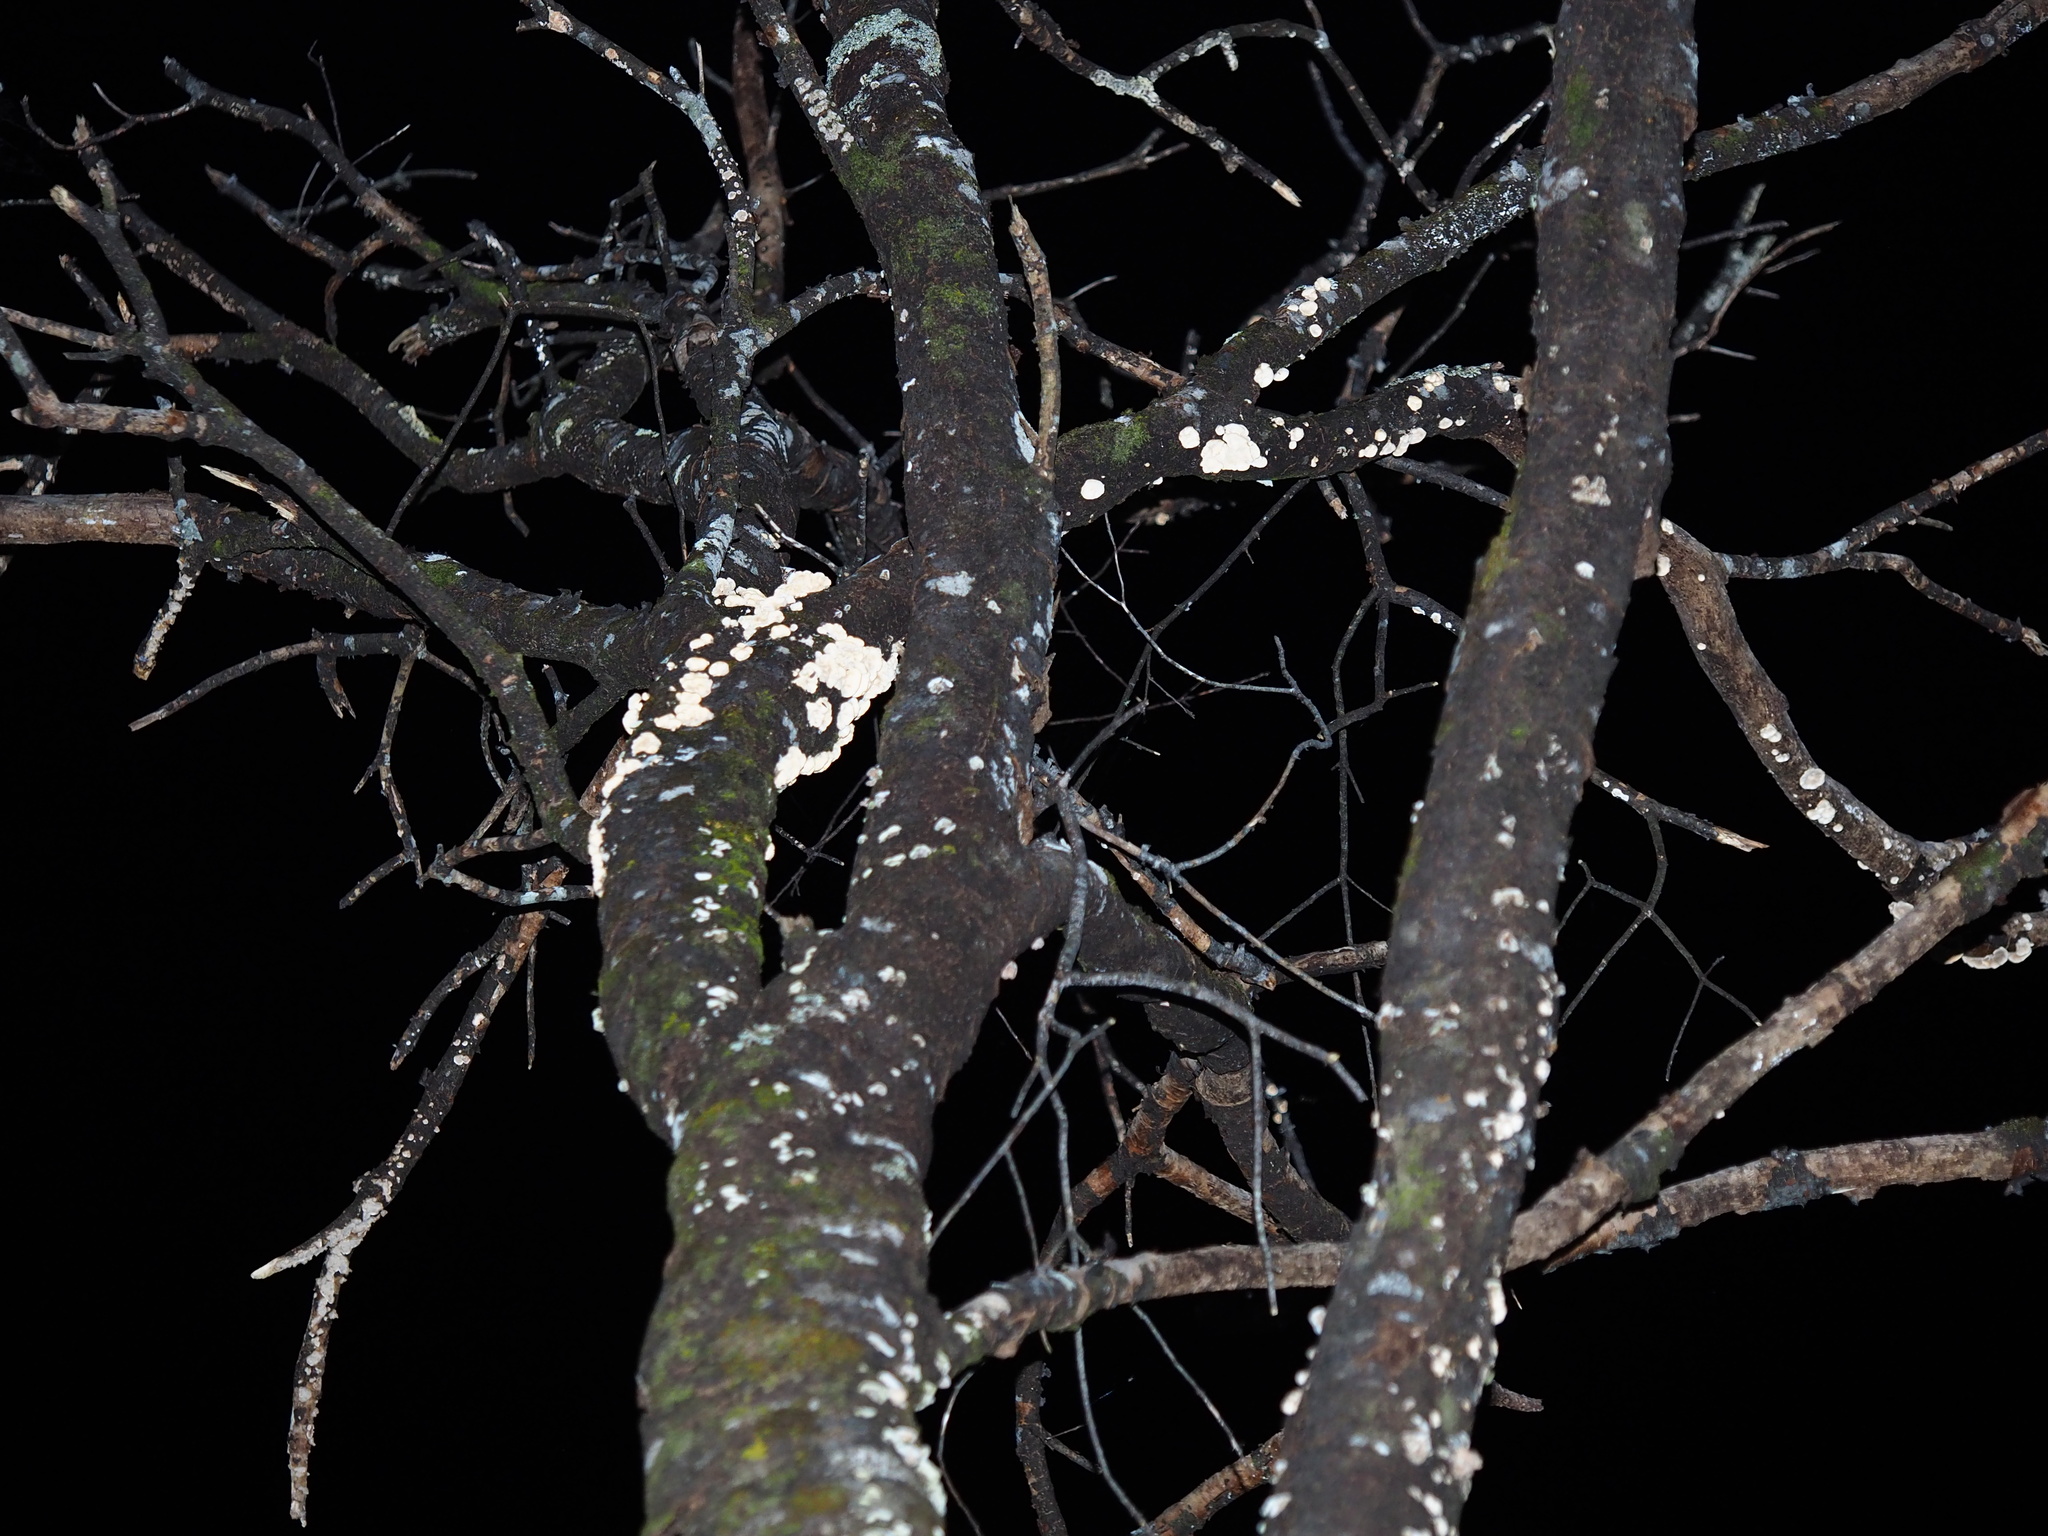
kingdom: Fungi
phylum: Basidiomycota
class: Agaricomycetes
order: Agaricales
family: Schizophyllaceae
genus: Schizophyllum
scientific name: Schizophyllum commune
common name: Common porecrust
